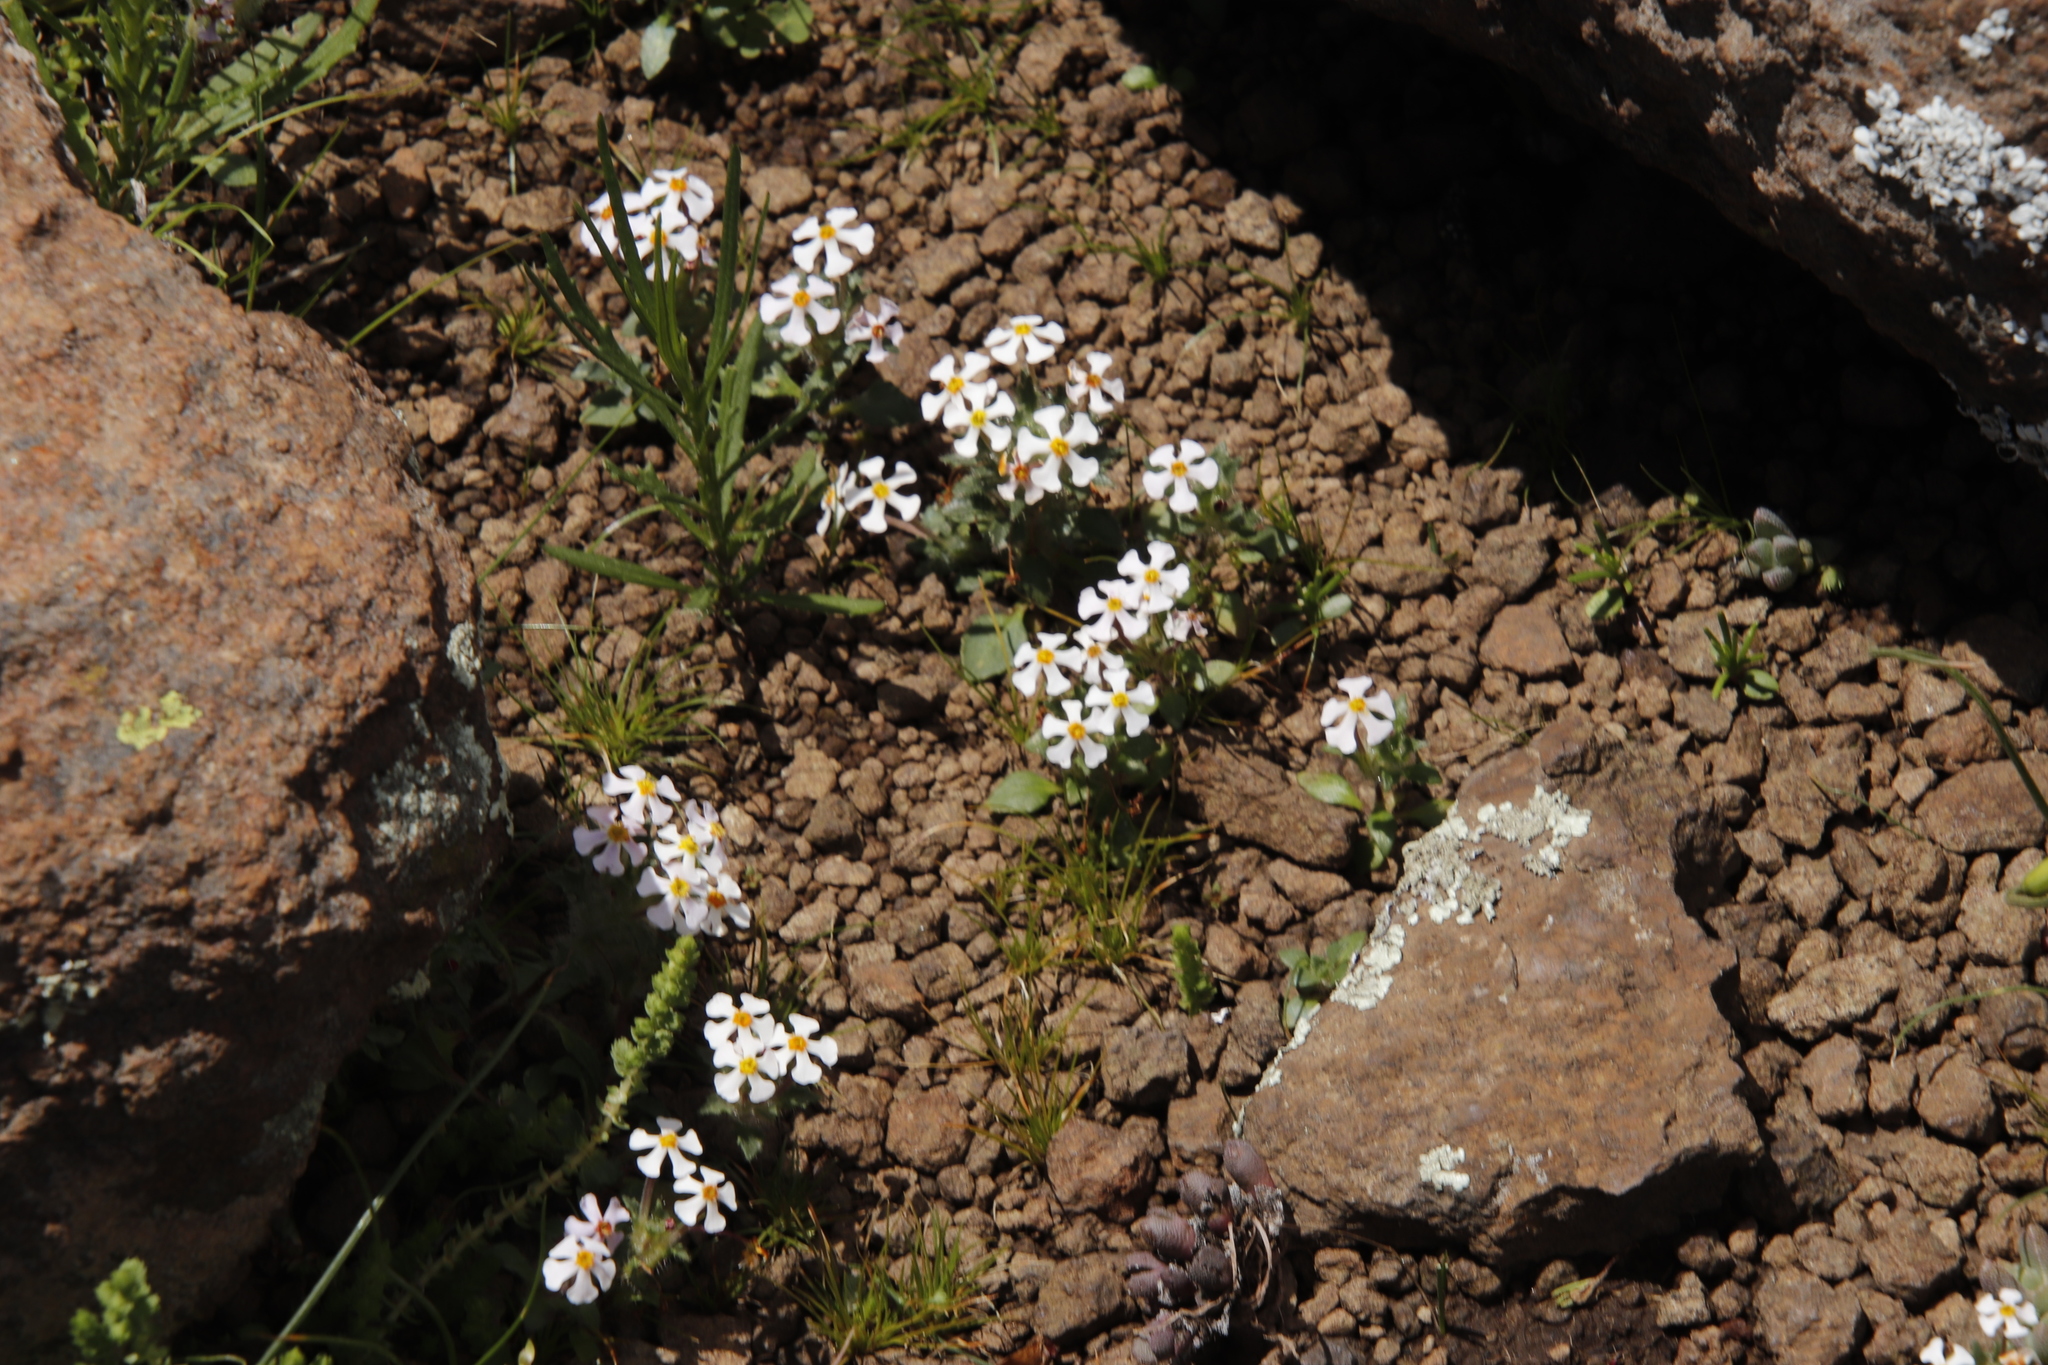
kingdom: Plantae
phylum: Tracheophyta
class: Magnoliopsida
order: Lamiales
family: Scrophulariaceae
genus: Zaluzianskya
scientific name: Zaluzianskya crocea
